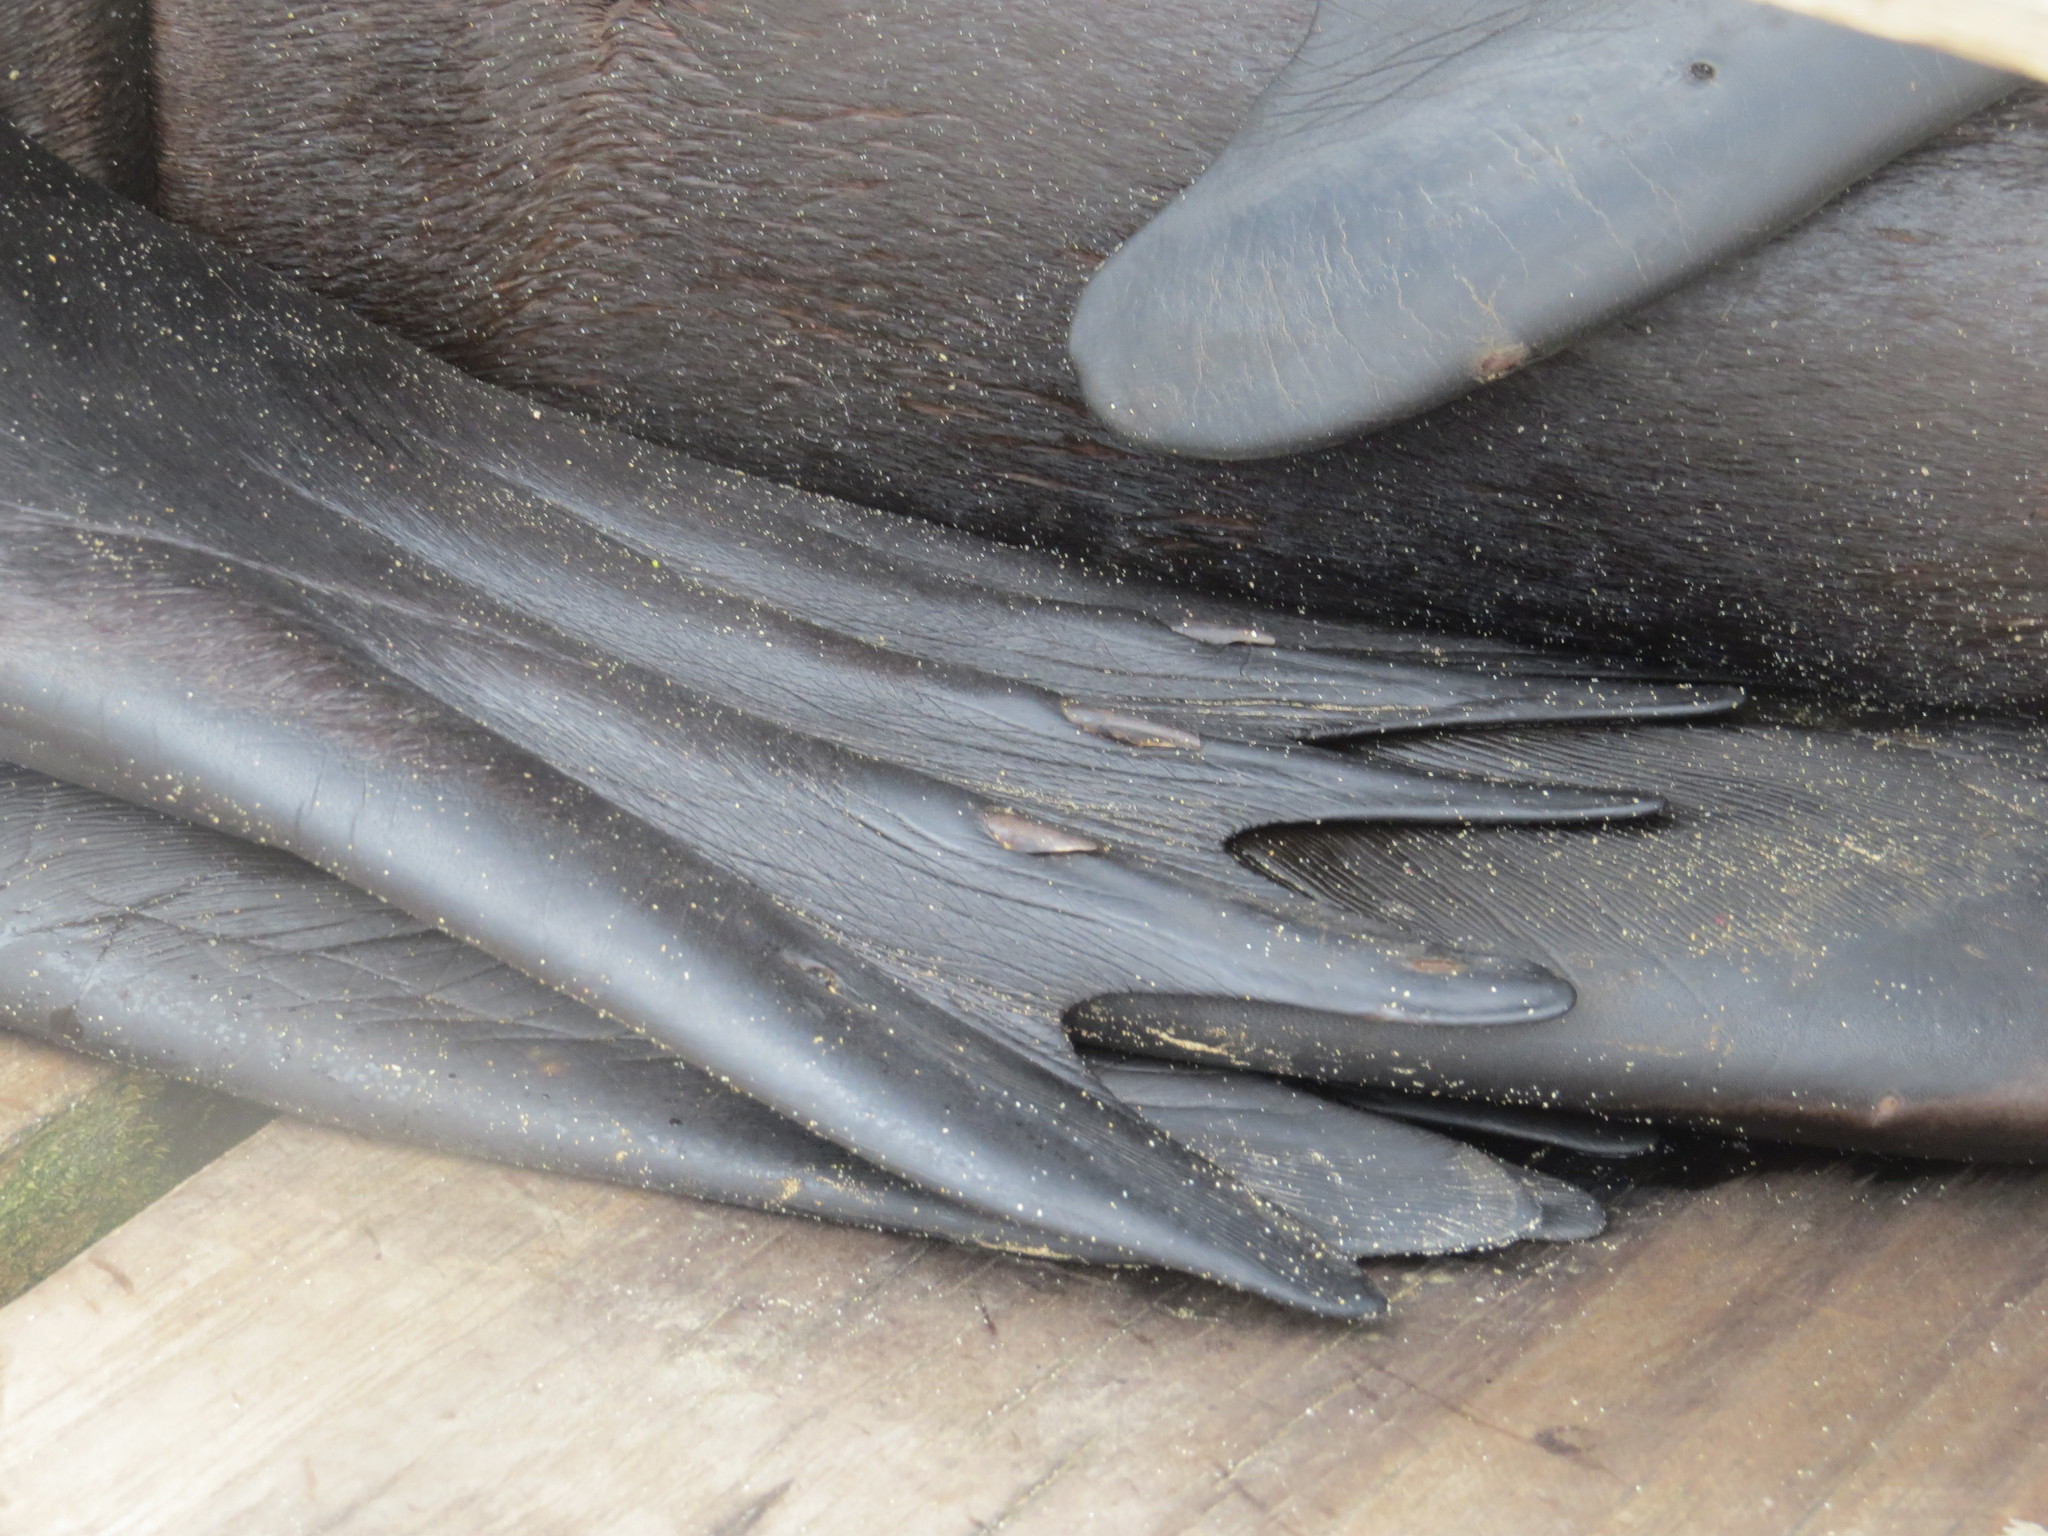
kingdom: Animalia
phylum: Chordata
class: Mammalia
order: Carnivora
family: Otariidae
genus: Zalophus
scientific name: Zalophus wollebaeki
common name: Galapagos sea lion
